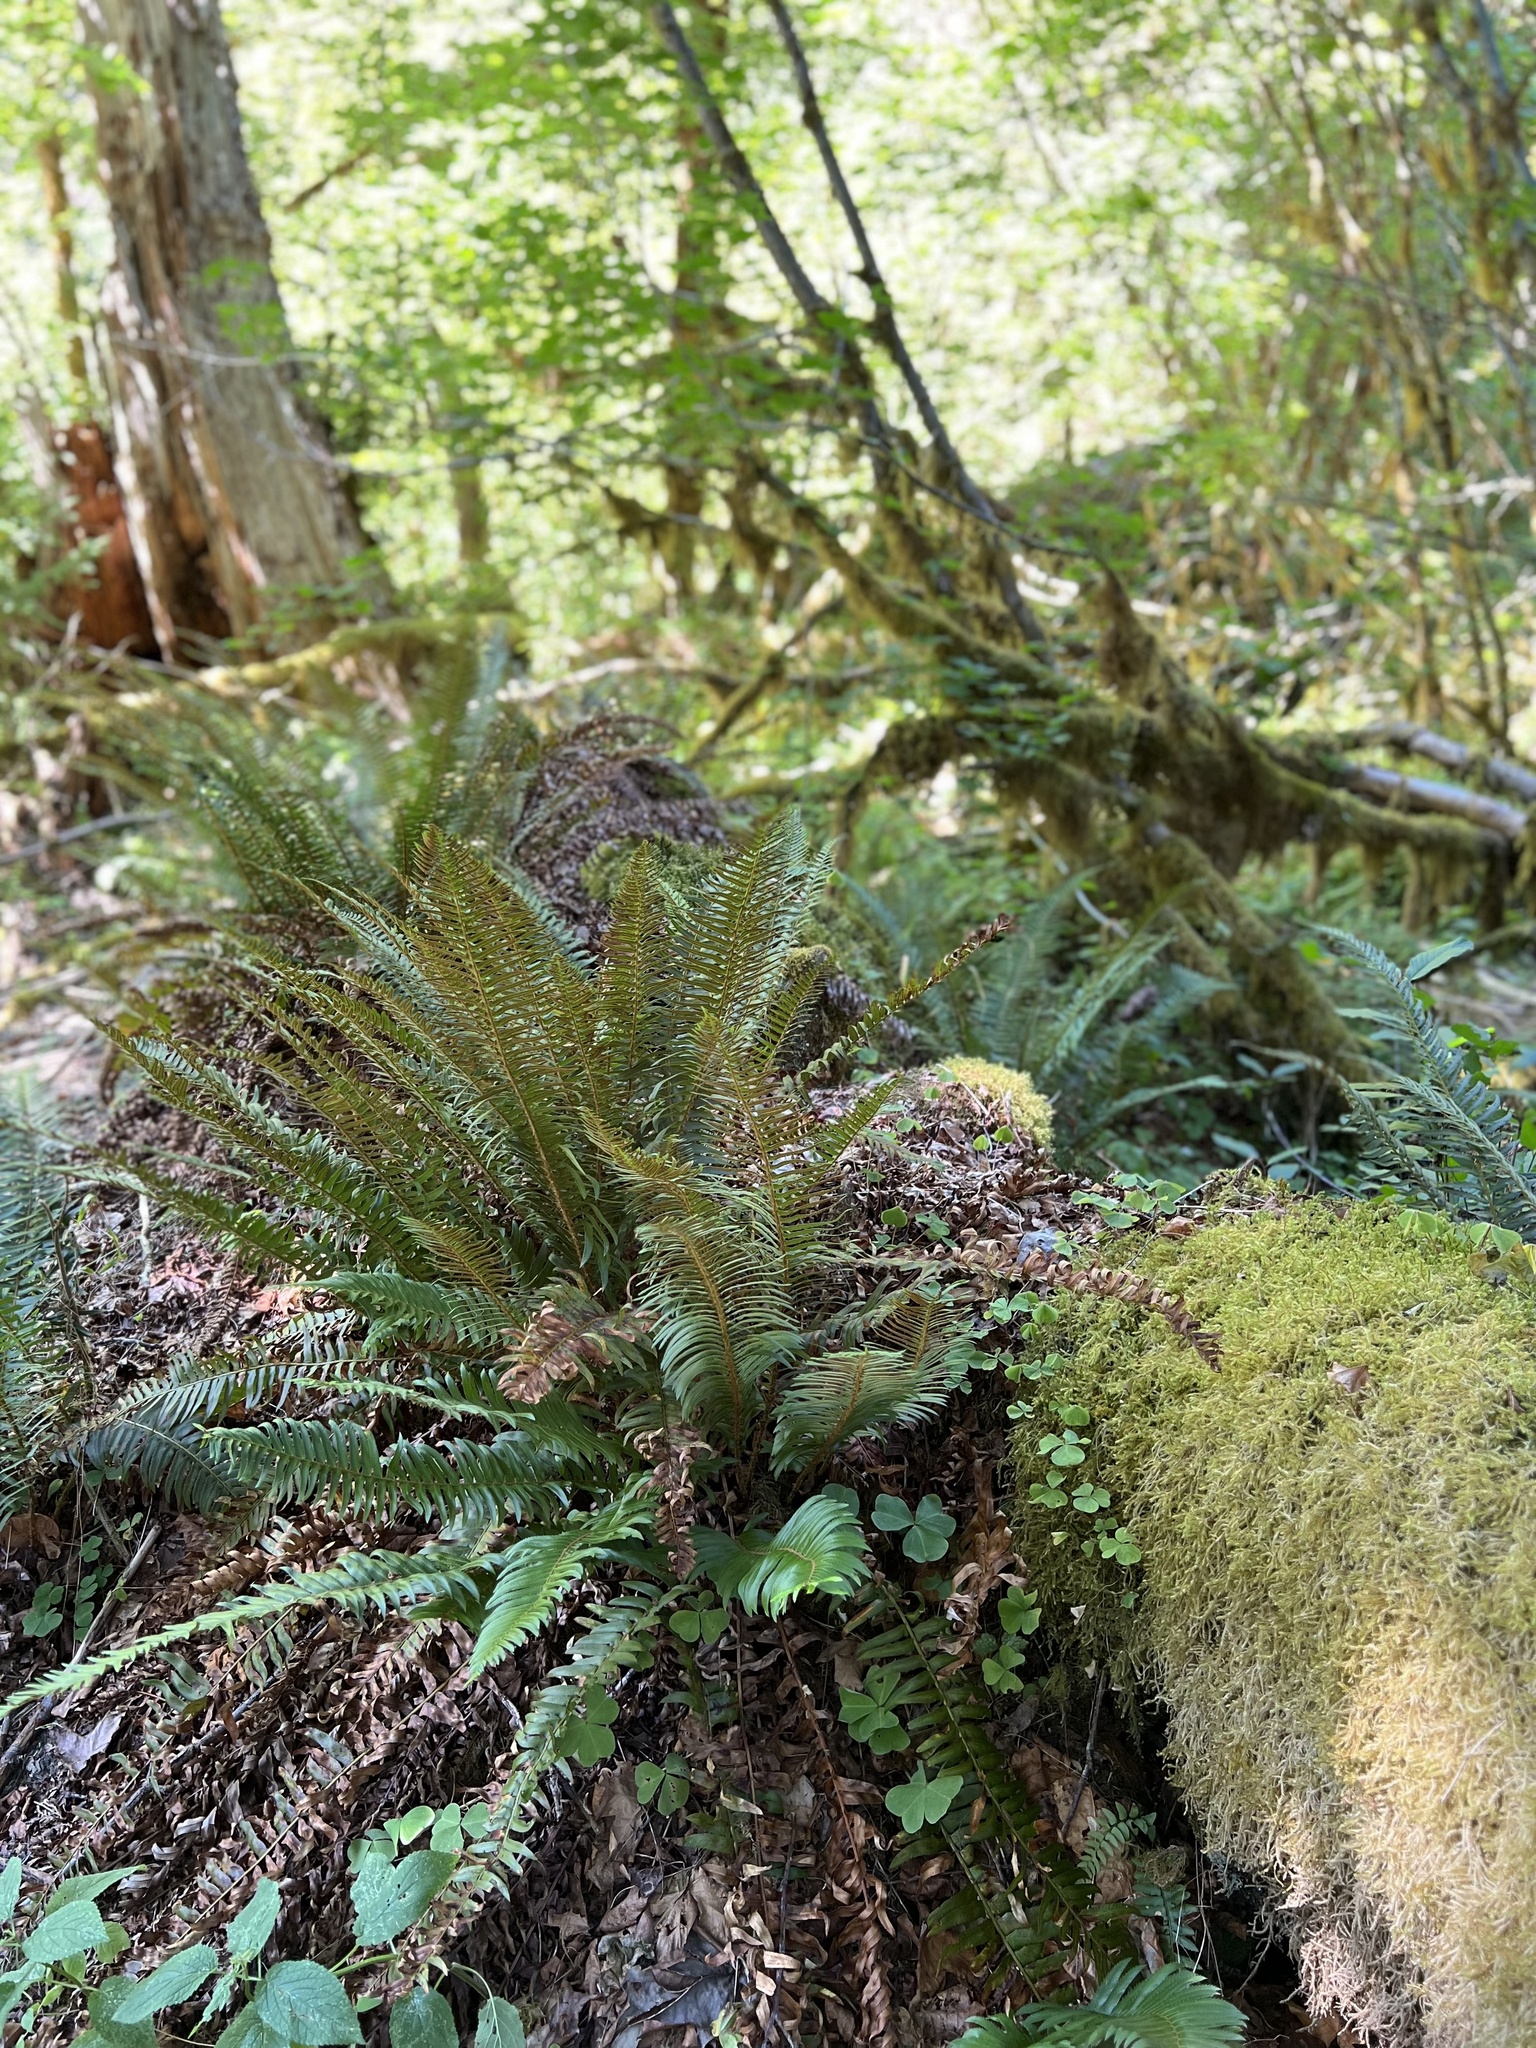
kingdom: Plantae
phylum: Tracheophyta
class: Polypodiopsida
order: Polypodiales
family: Dryopteridaceae
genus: Polystichum
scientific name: Polystichum munitum
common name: Western sword-fern
